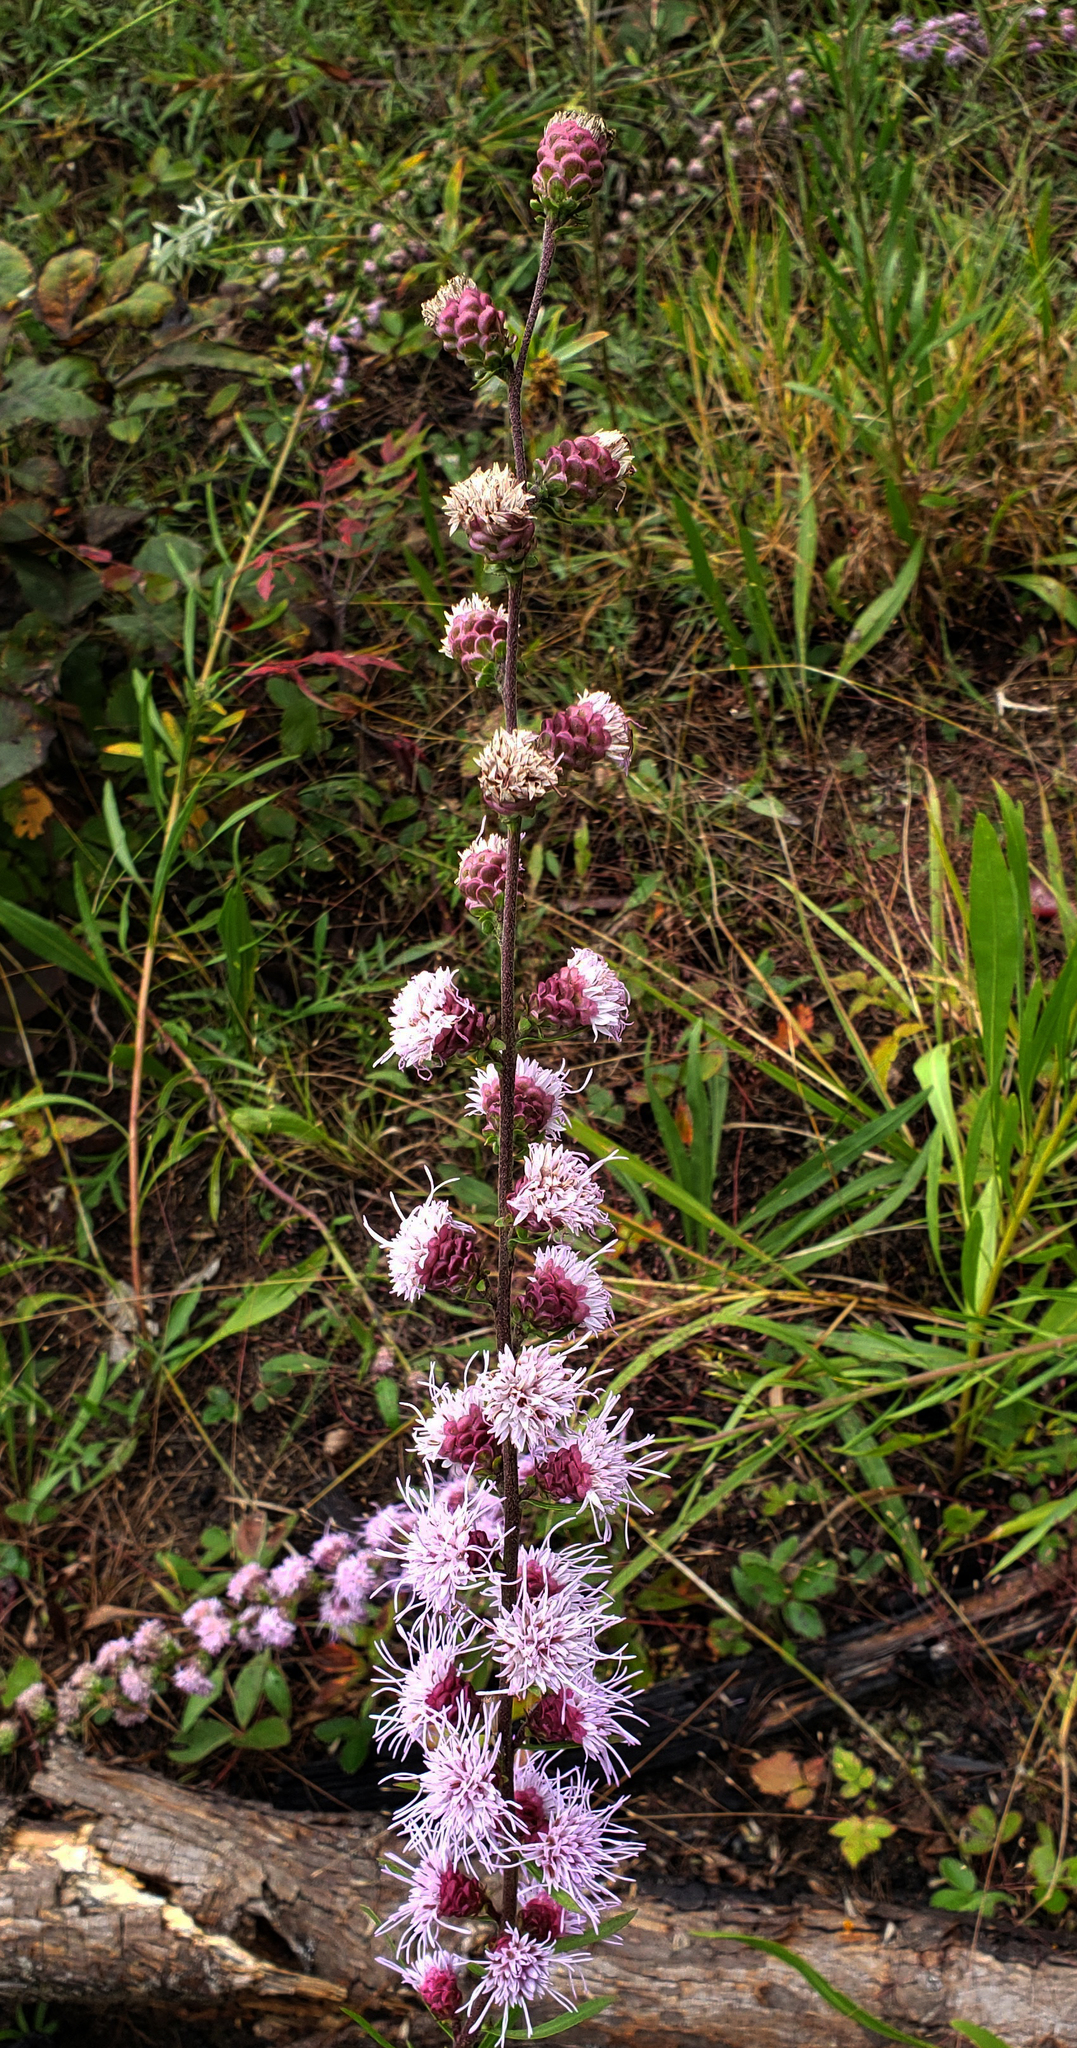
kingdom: Plantae
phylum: Tracheophyta
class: Magnoliopsida
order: Asterales
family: Asteraceae
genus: Liatris
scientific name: Liatris aspera
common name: Lacerate blazing-star
